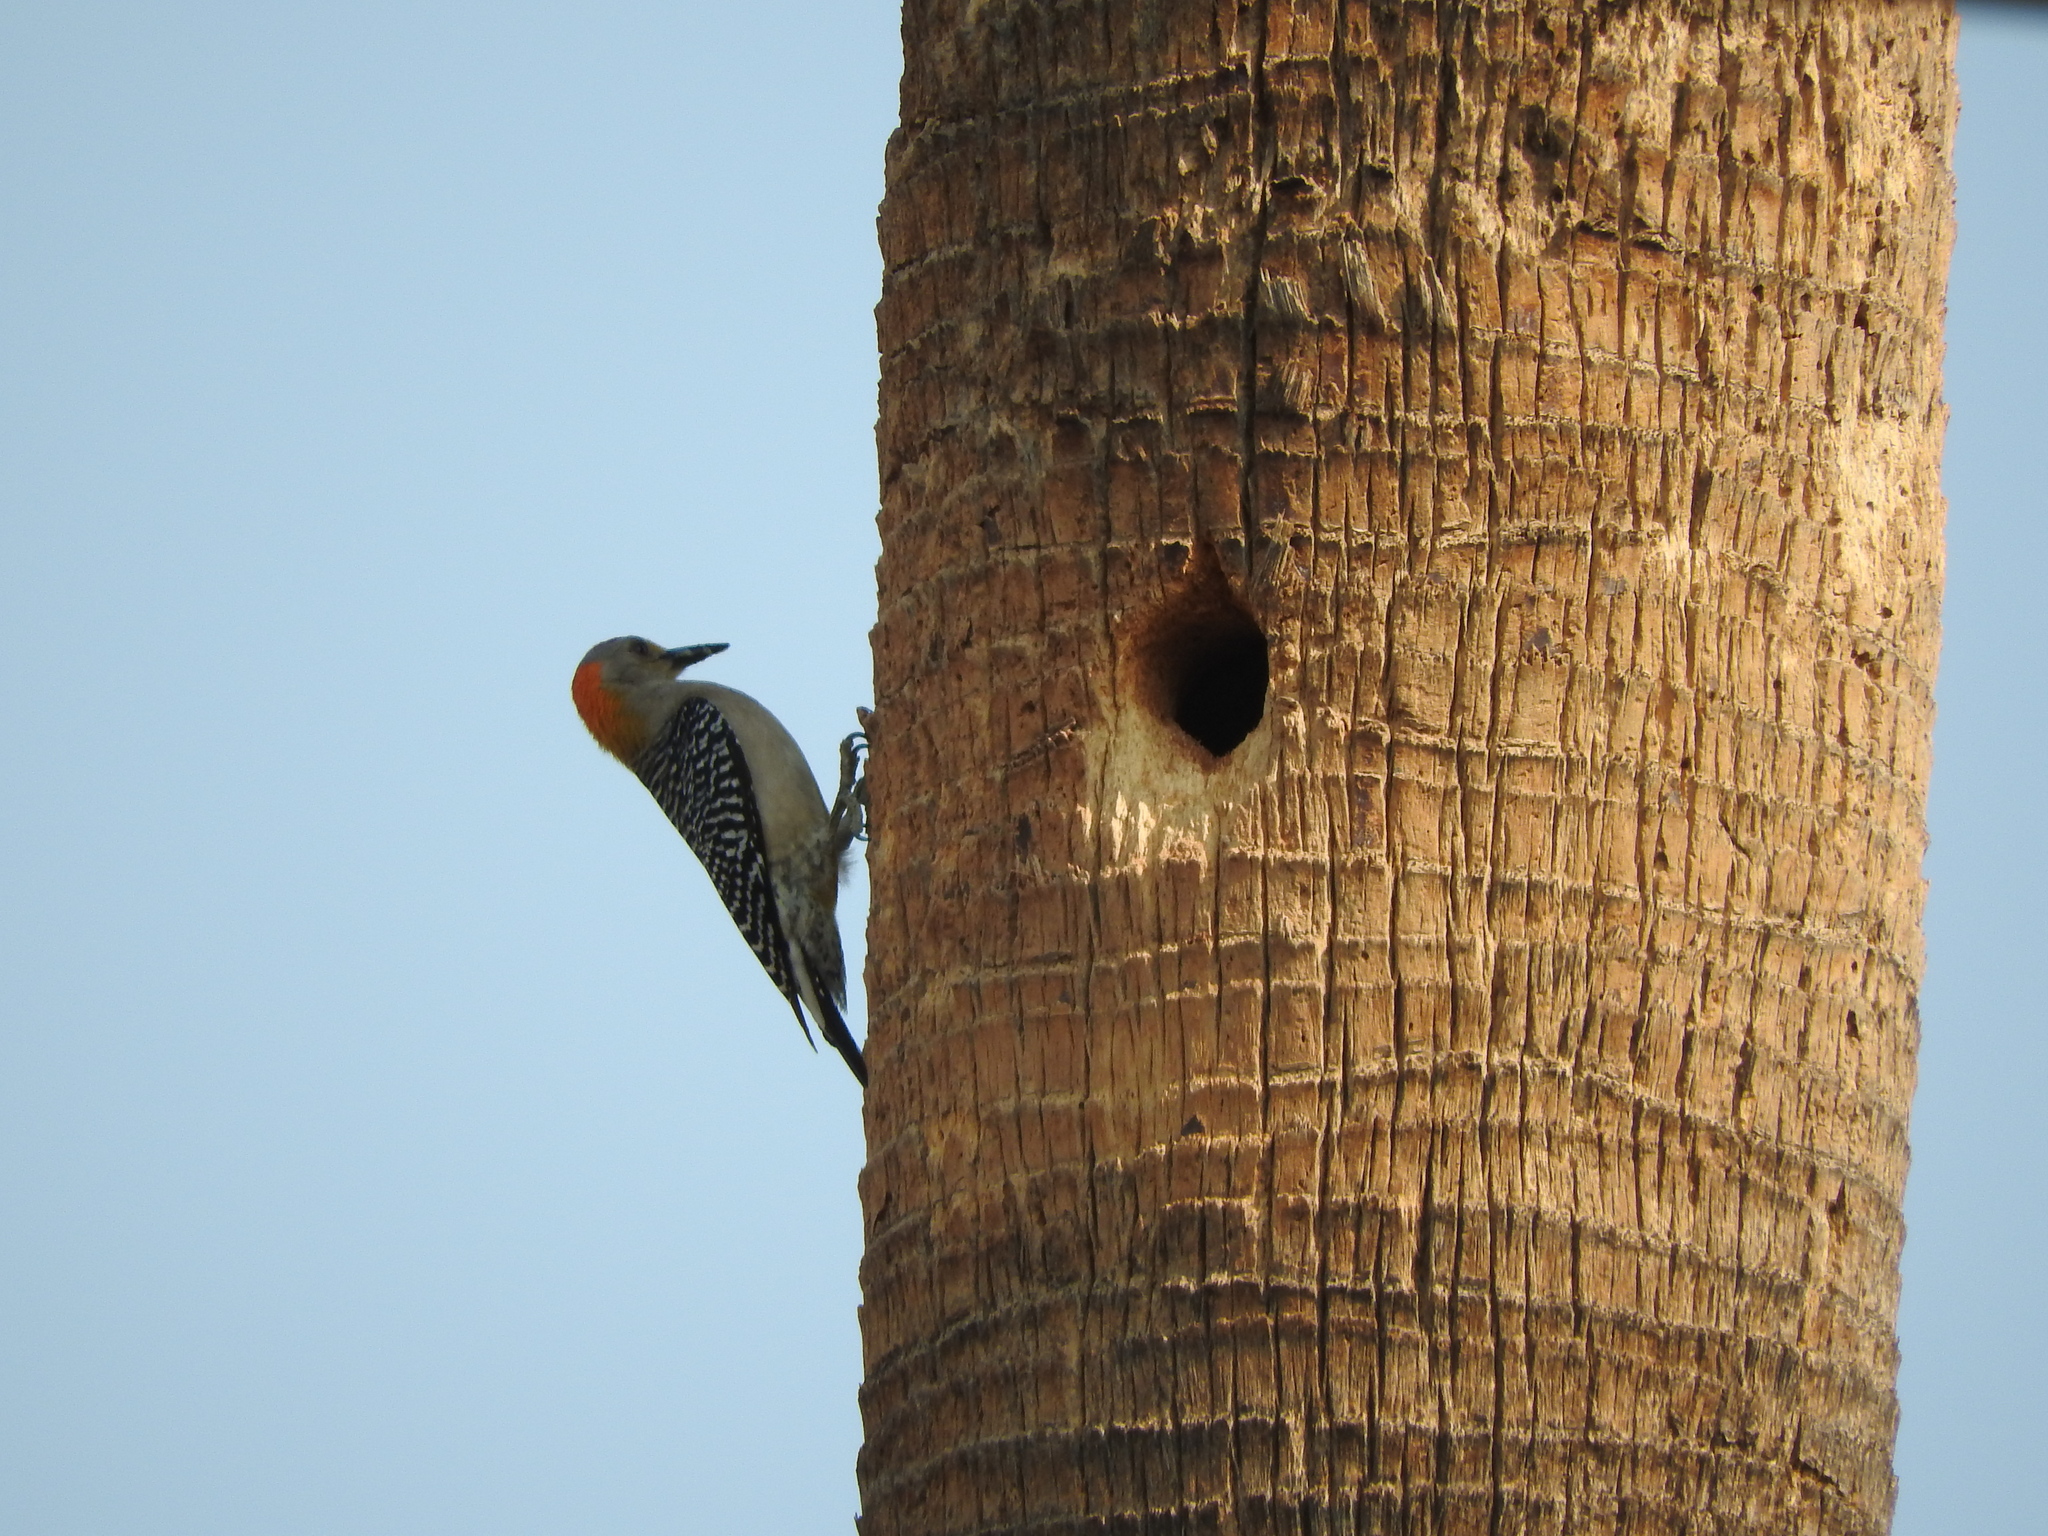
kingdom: Animalia
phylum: Chordata
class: Aves
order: Piciformes
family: Picidae
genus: Melanerpes
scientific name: Melanerpes aurifrons
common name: Golden-fronted woodpecker
